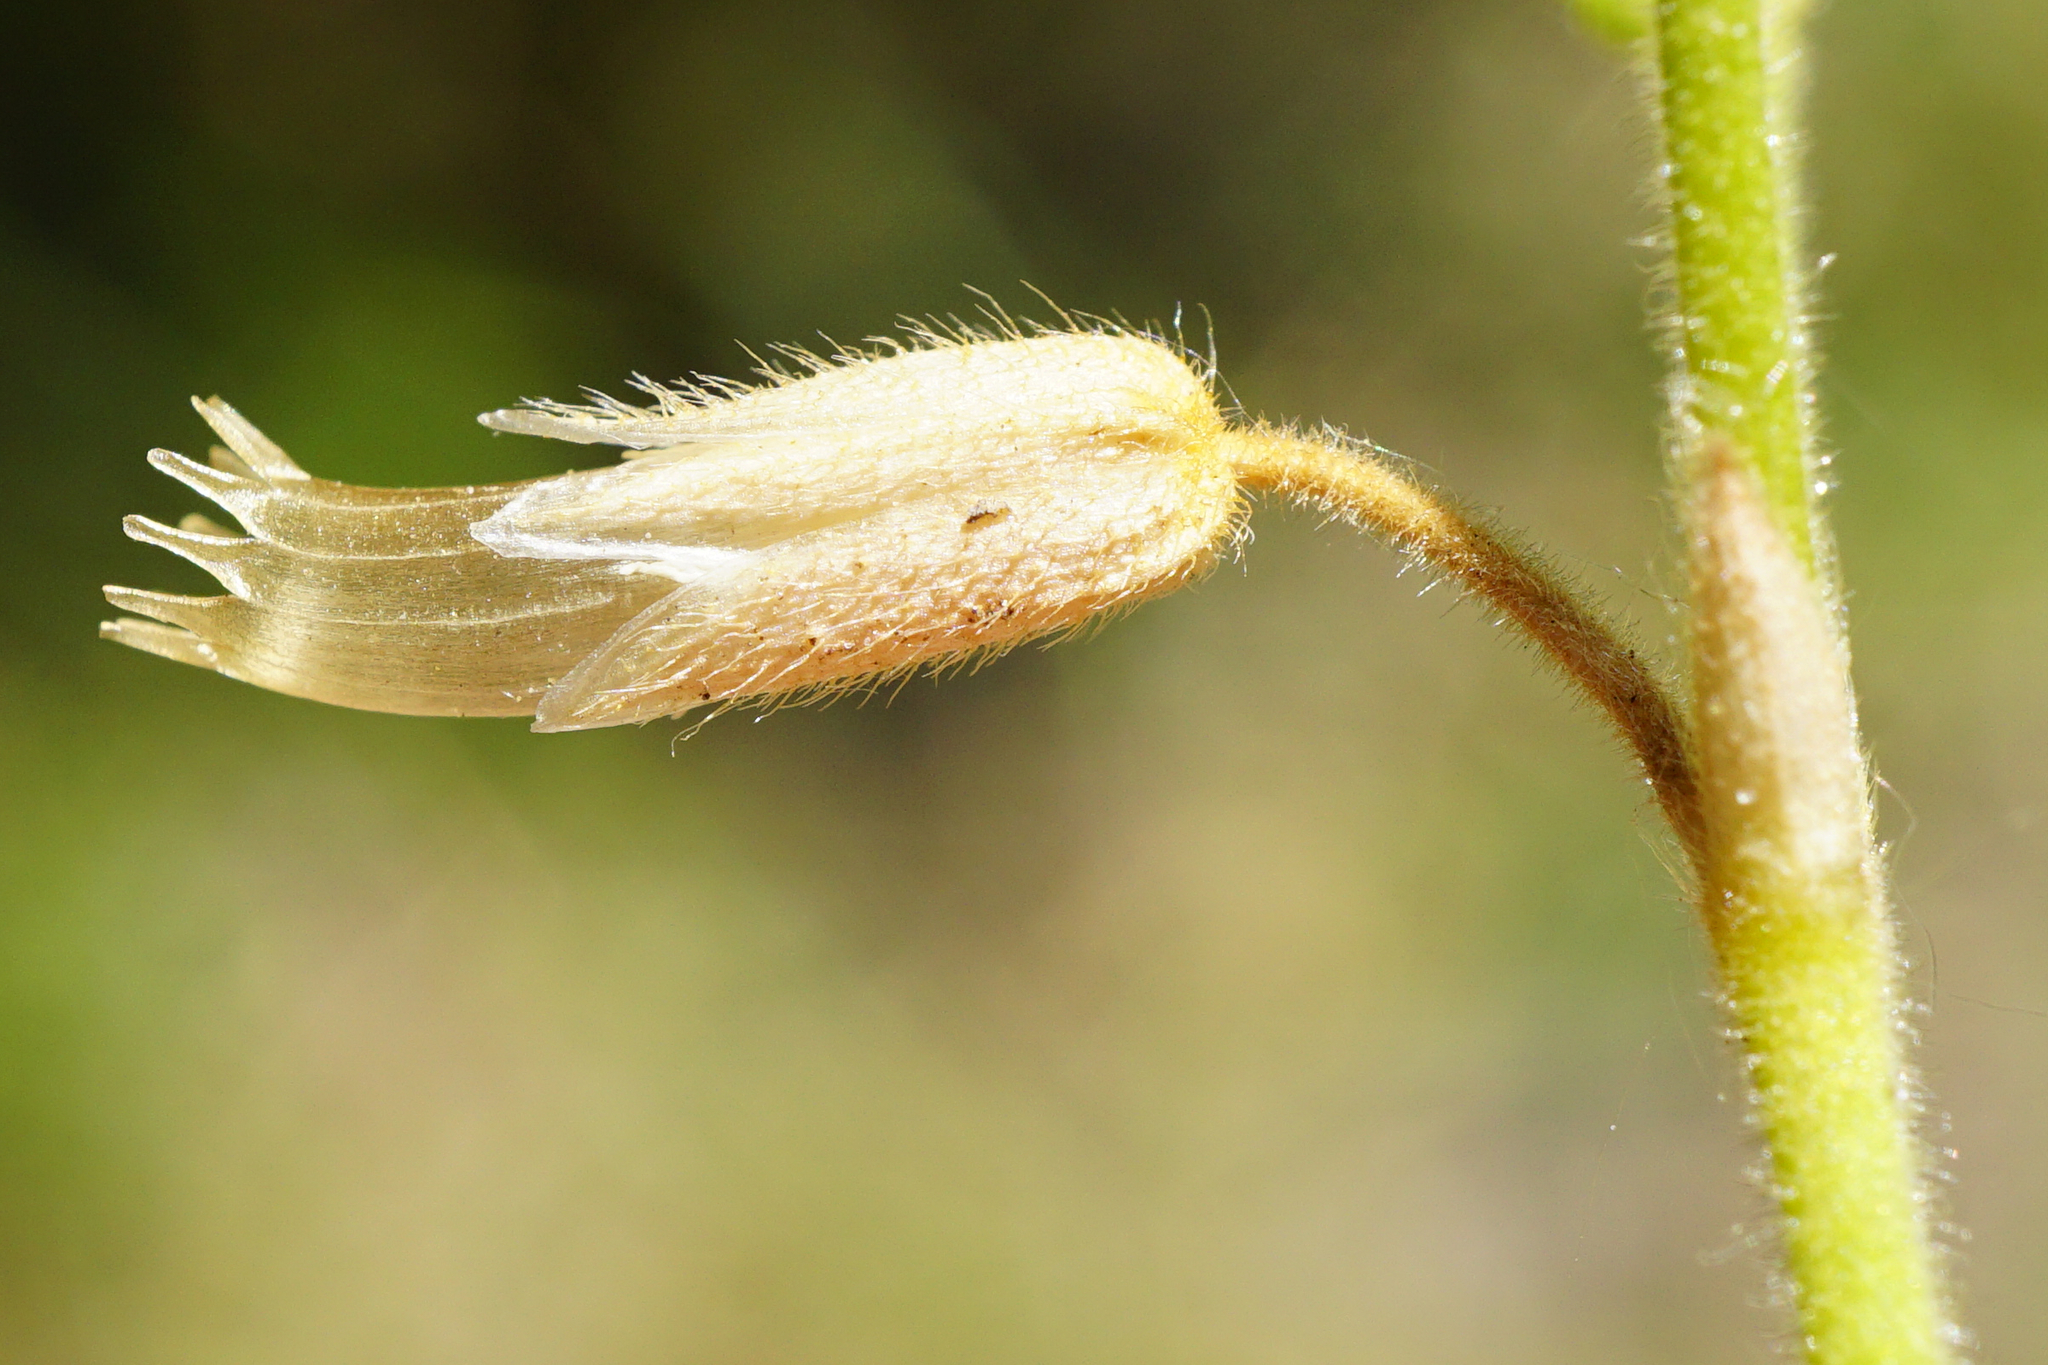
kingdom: Plantae
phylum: Tracheophyta
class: Magnoliopsida
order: Caryophyllales
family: Caryophyllaceae
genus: Cerastium
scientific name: Cerastium holosteoides
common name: Big chickweed
